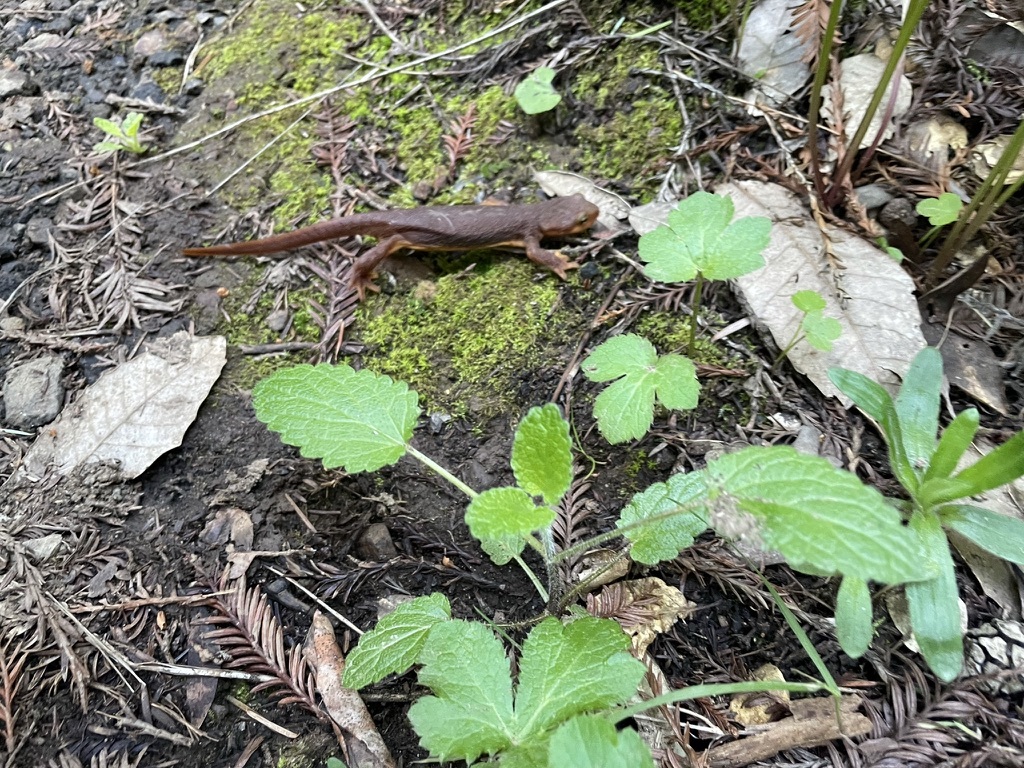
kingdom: Animalia
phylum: Chordata
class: Amphibia
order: Caudata
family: Salamandridae
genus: Taricha
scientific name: Taricha torosa
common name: California newt
